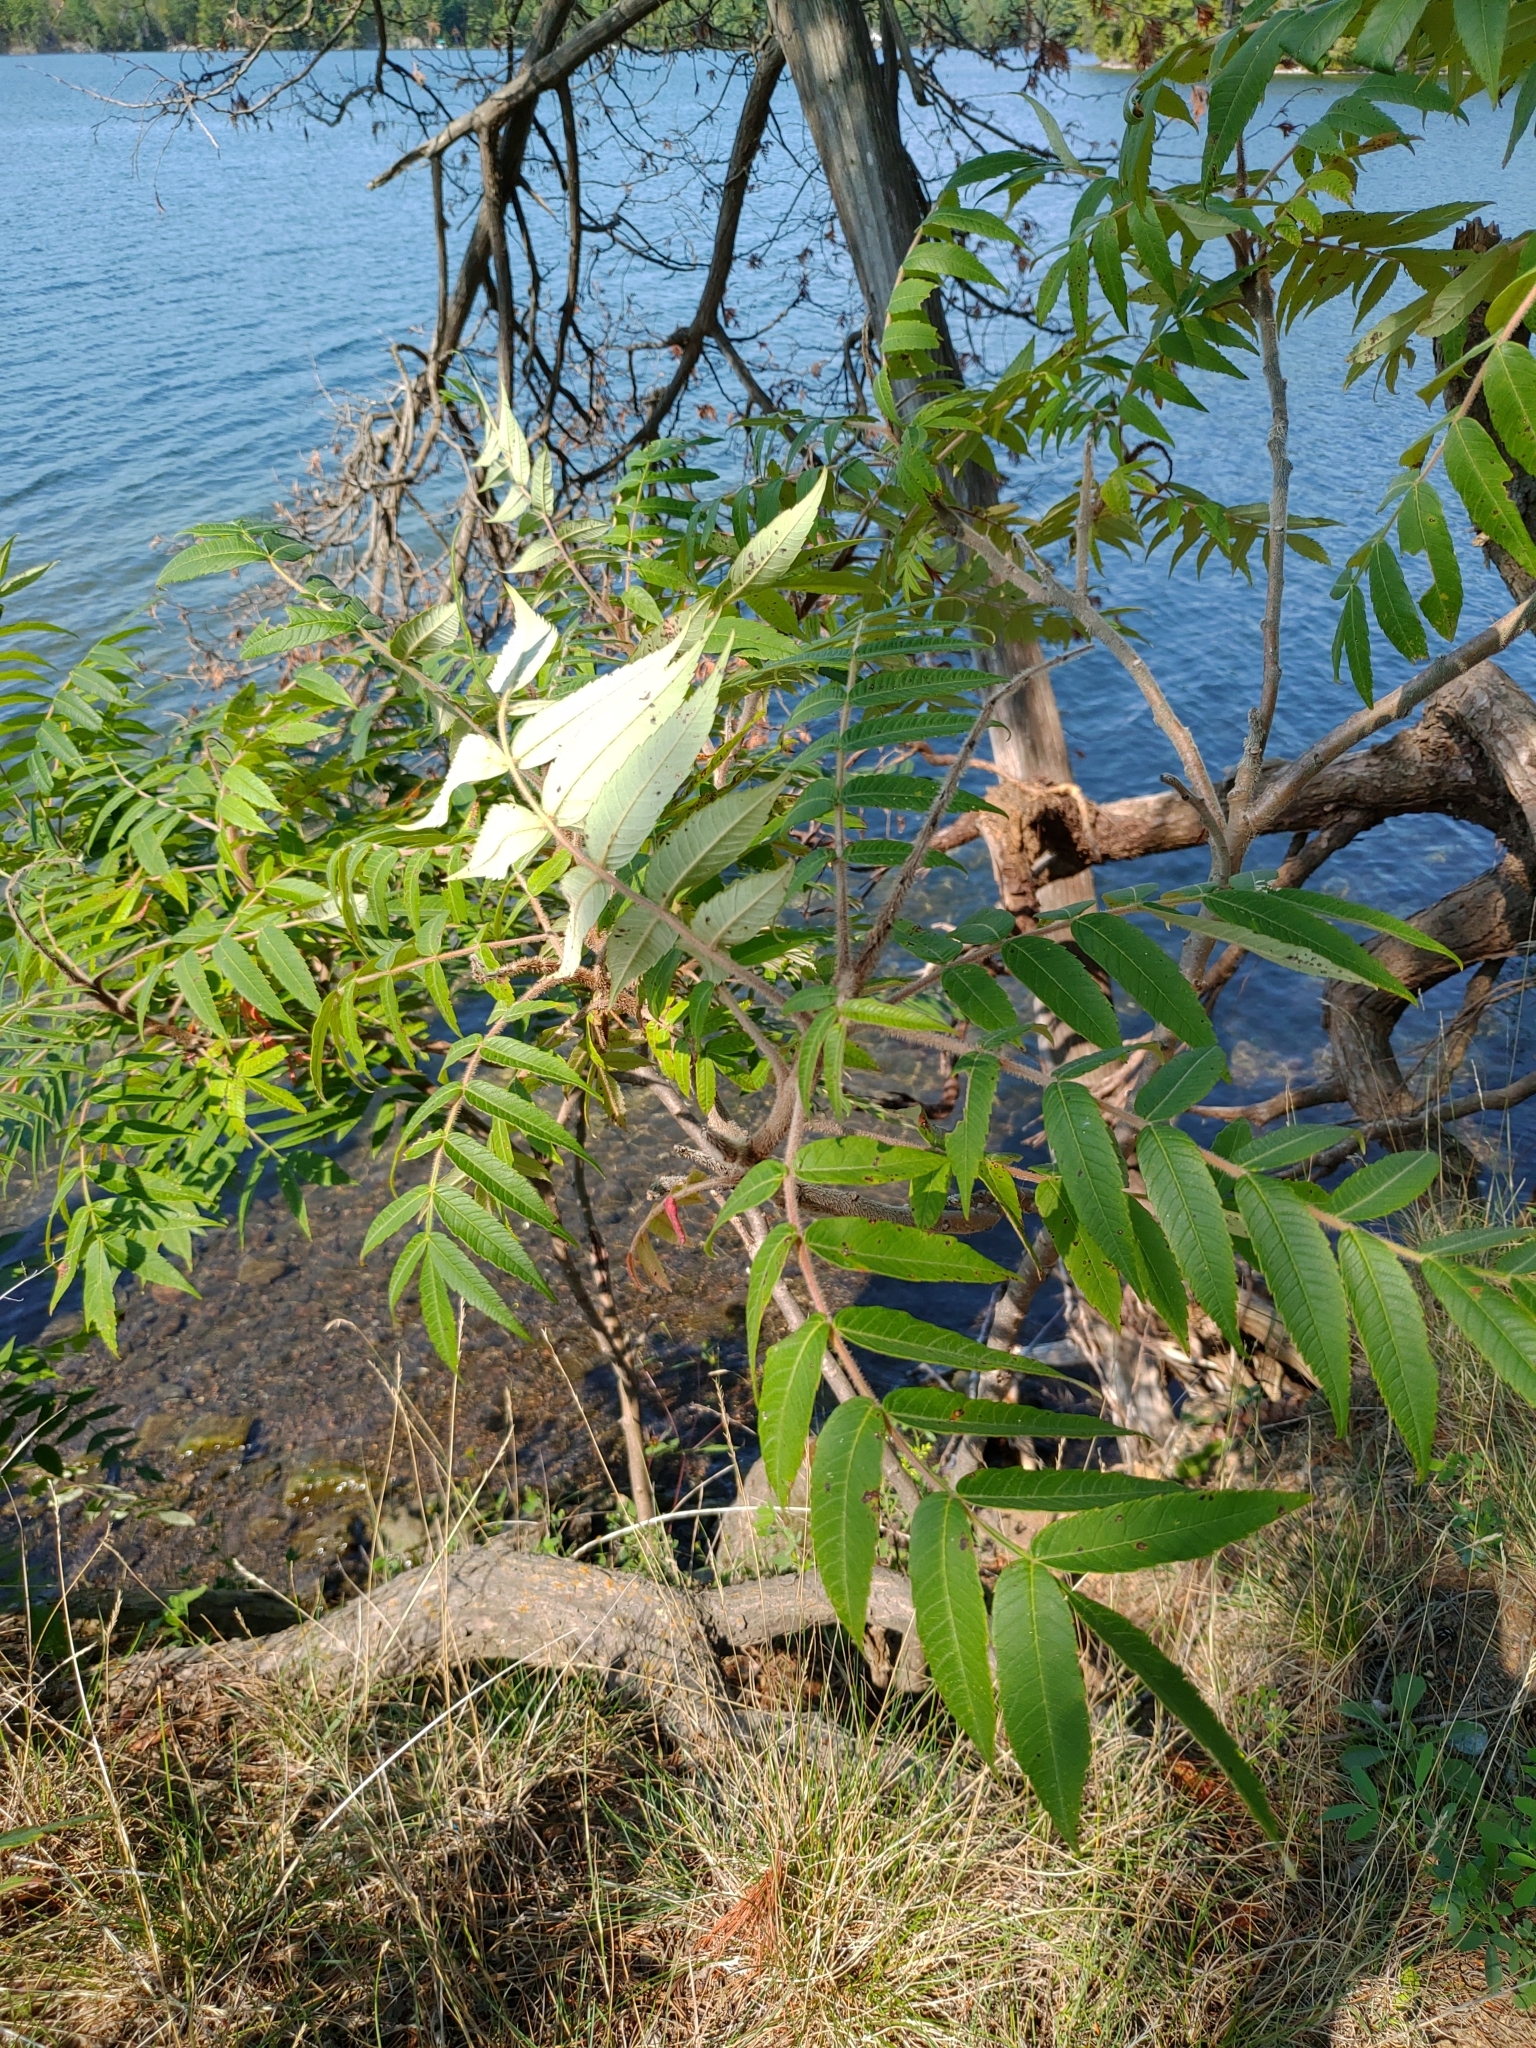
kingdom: Plantae
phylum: Tracheophyta
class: Magnoliopsida
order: Sapindales
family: Anacardiaceae
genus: Rhus
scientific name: Rhus typhina
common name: Staghorn sumac
